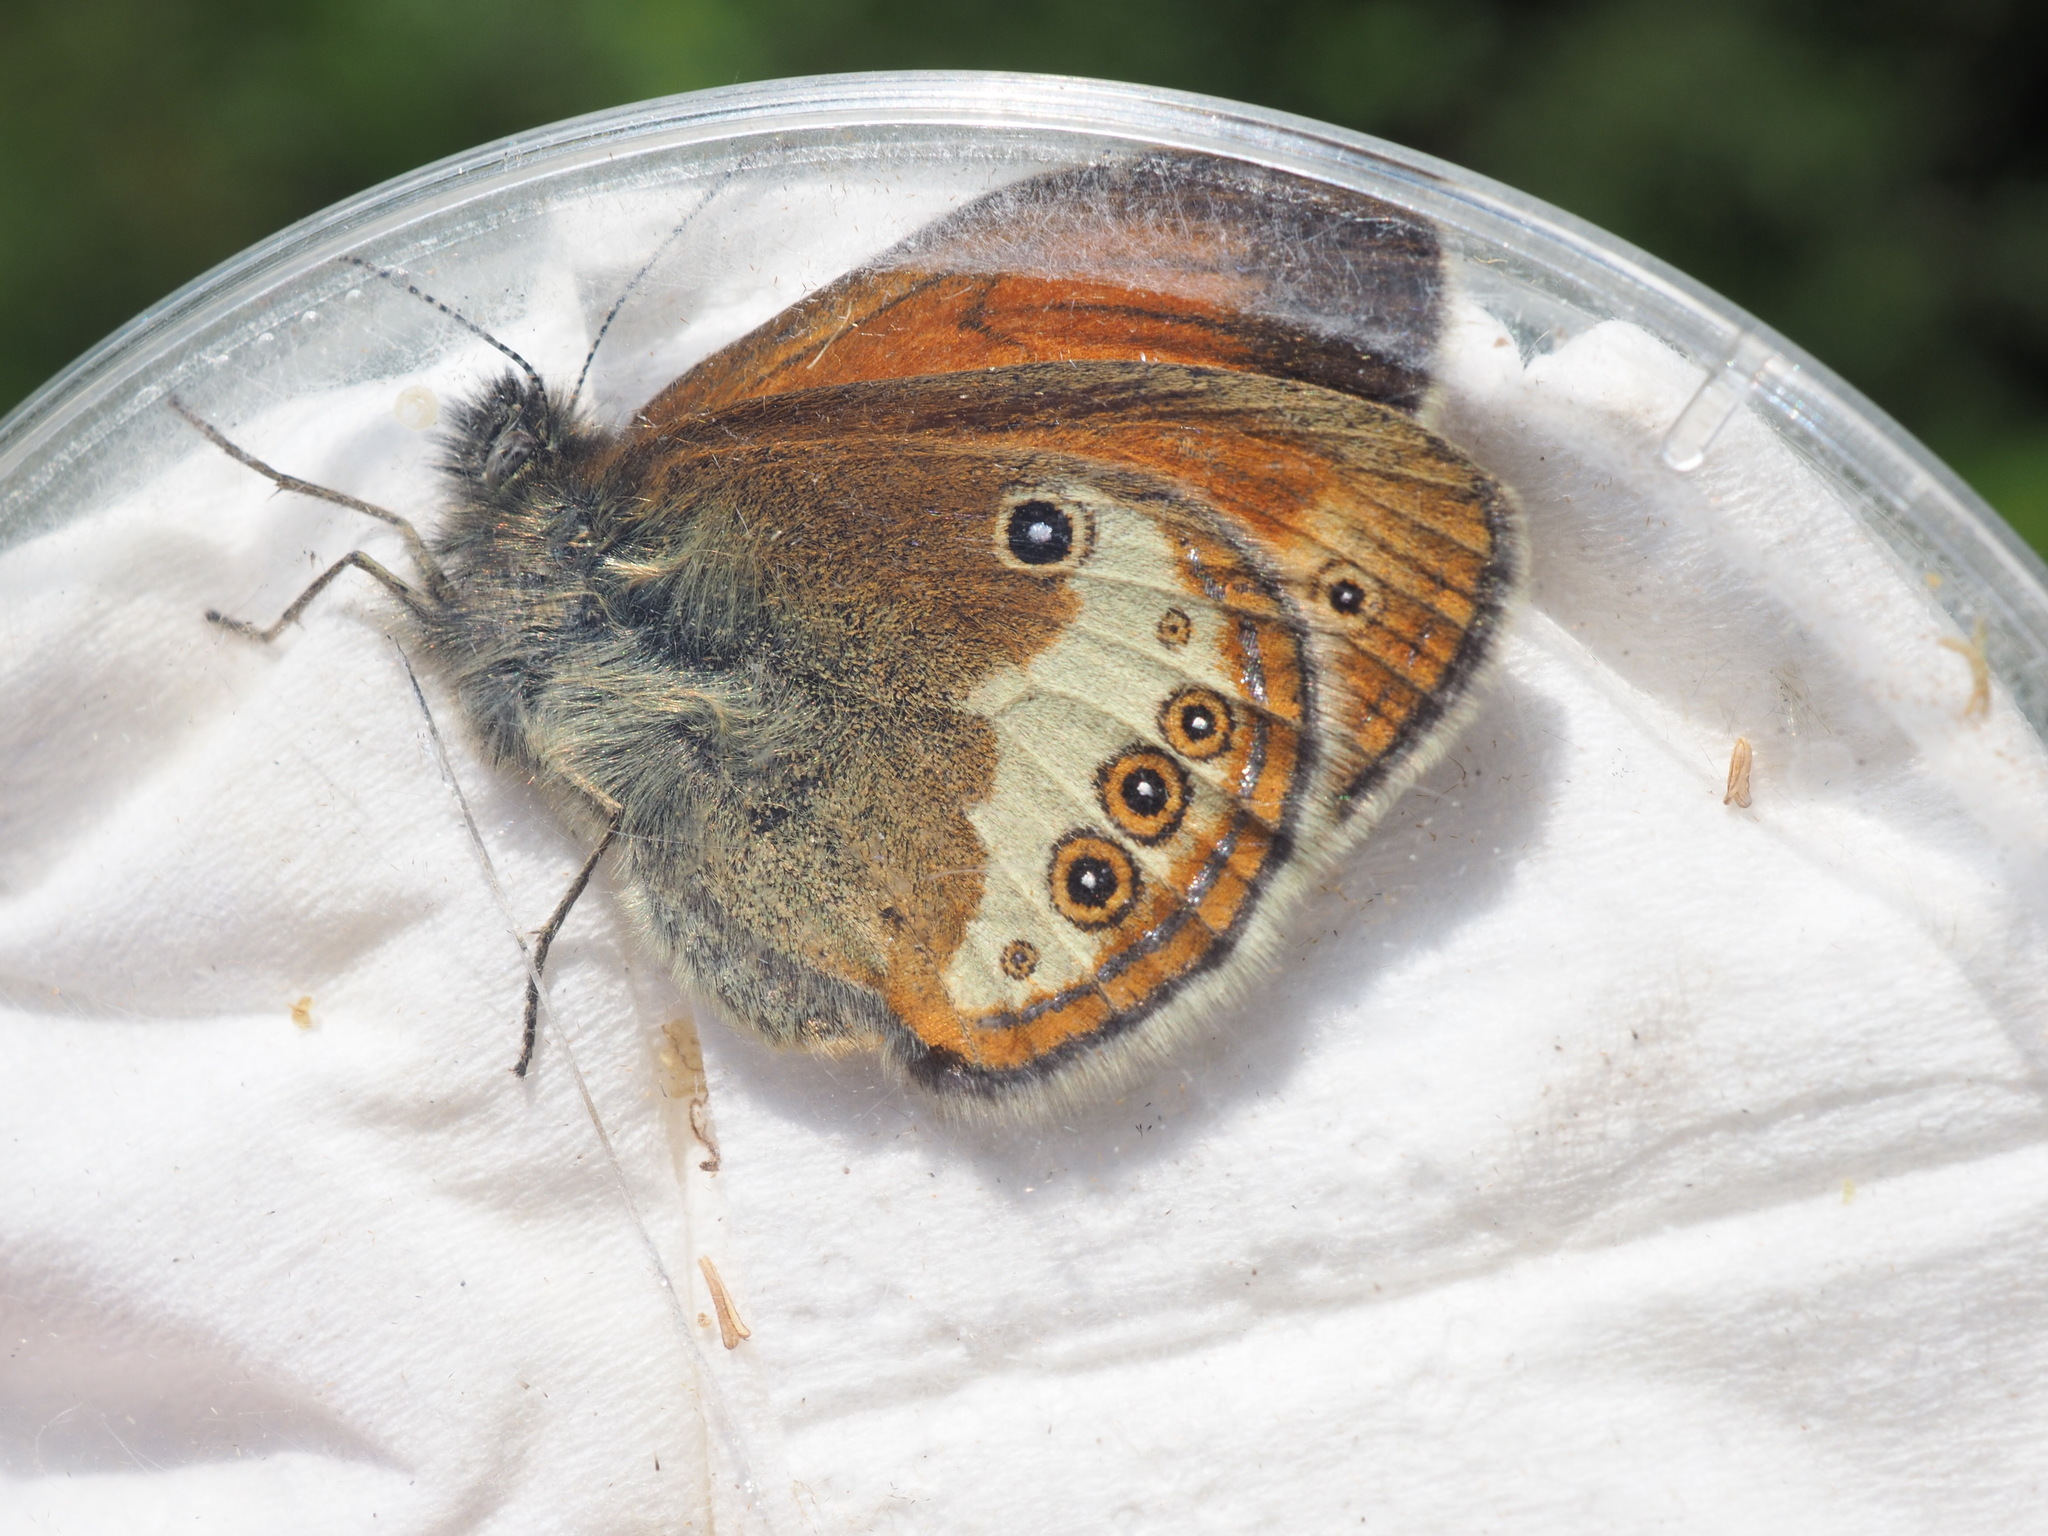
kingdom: Animalia
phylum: Arthropoda
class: Insecta
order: Lepidoptera
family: Nymphalidae
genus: Coenonympha
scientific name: Coenonympha arcania
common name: Pearly heath
